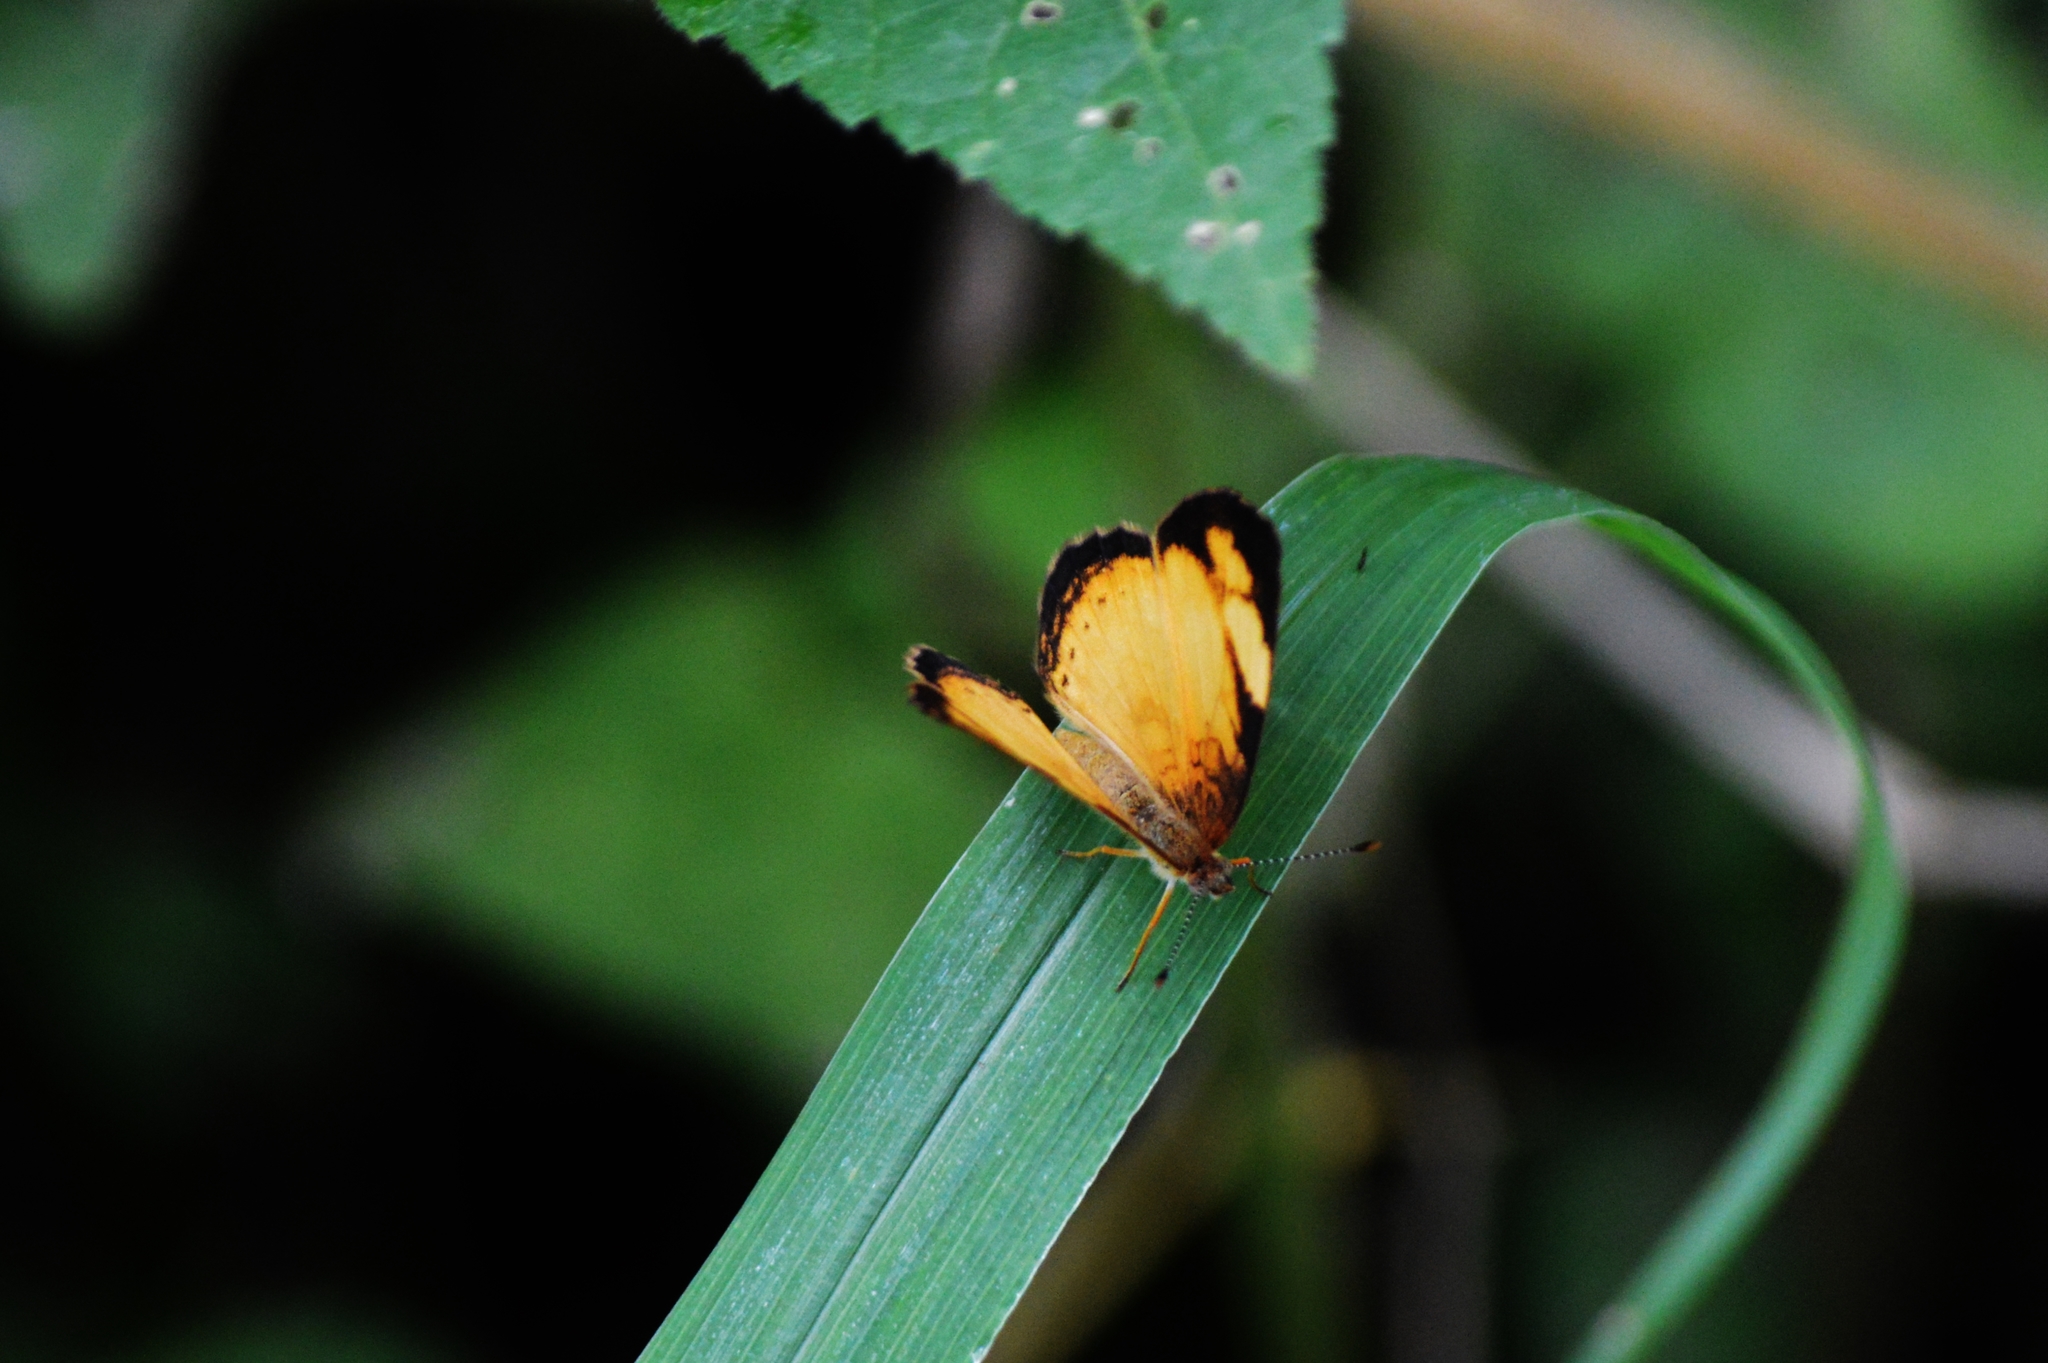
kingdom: Animalia
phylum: Arthropoda
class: Insecta
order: Lepidoptera
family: Nymphalidae
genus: Tegosa
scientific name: Tegosa claudina
